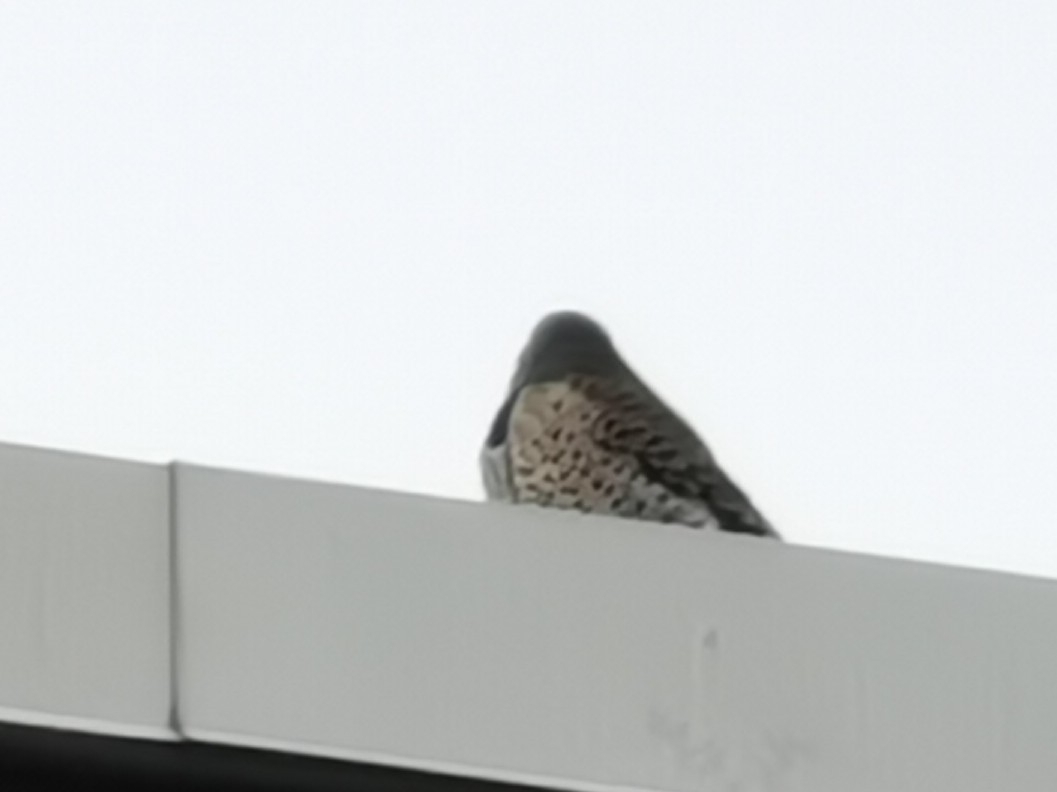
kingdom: Animalia
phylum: Chordata
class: Aves
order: Piciformes
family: Picidae
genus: Colaptes
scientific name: Colaptes auratus
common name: Northern flicker
